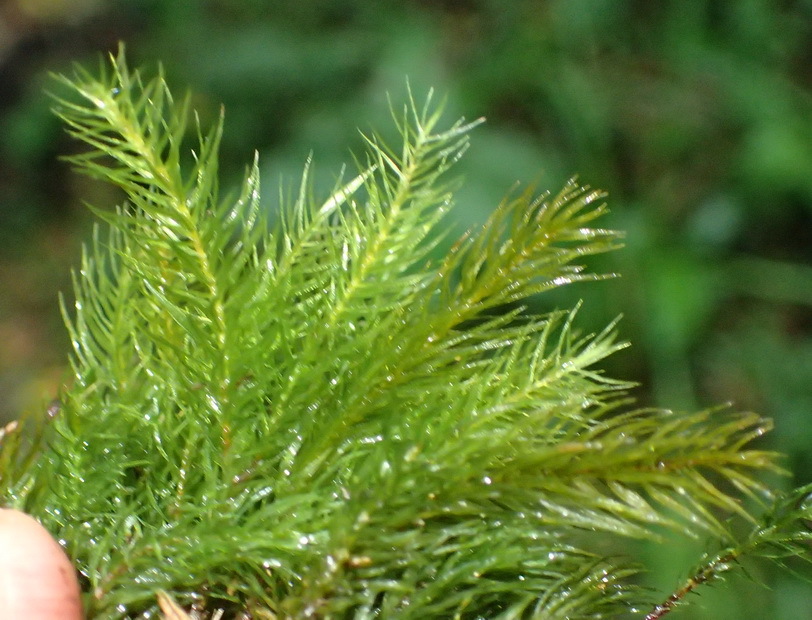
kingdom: Plantae
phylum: Bryophyta
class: Bryopsida
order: Rhizogoniales
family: Calomniaceae
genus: Pyrrhobryum
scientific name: Pyrrhobryum spiniforme
